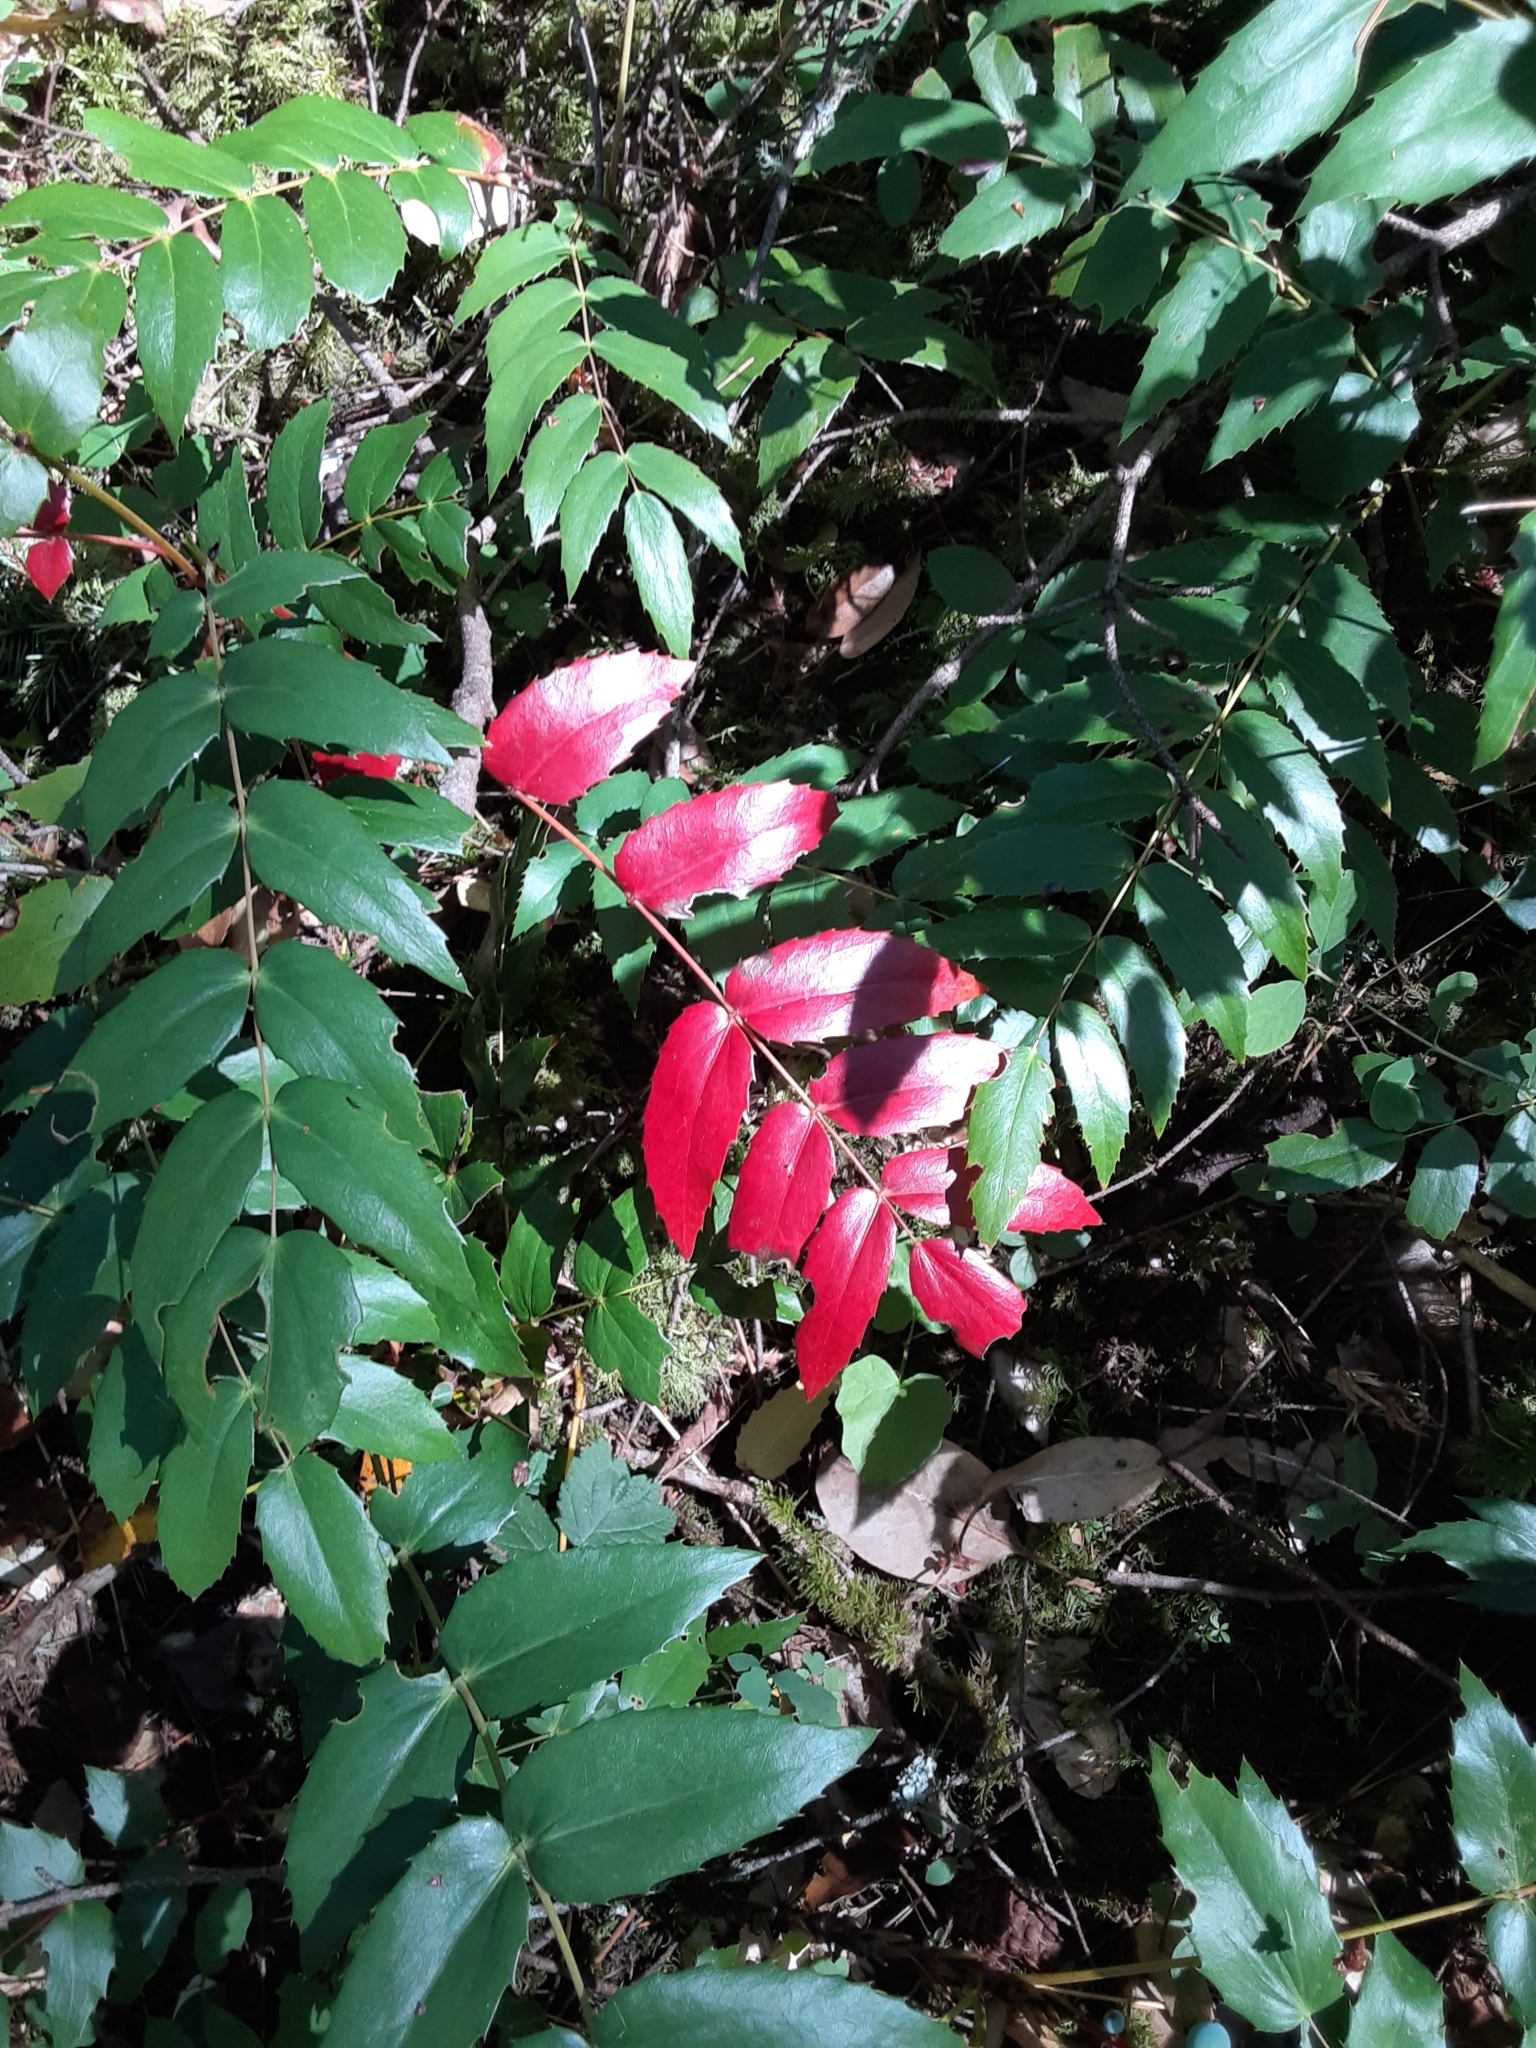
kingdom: Plantae
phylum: Tracheophyta
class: Magnoliopsida
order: Ranunculales
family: Berberidaceae
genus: Mahonia
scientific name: Mahonia nervosa
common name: Cascade oregon-grape
